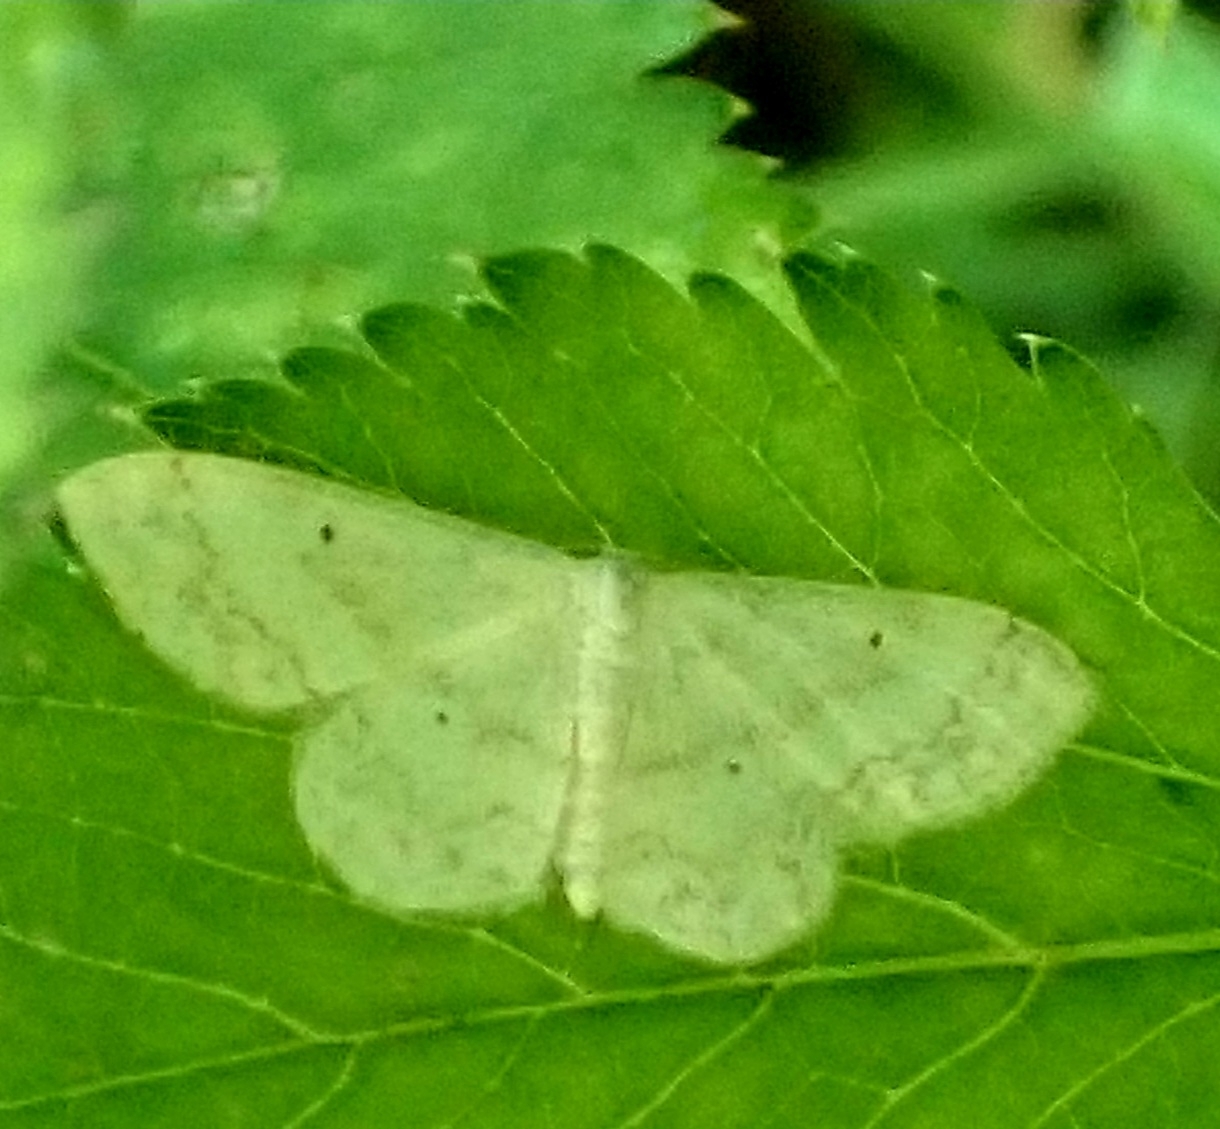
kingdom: Animalia
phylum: Arthropoda
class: Insecta
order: Lepidoptera
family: Geometridae
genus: Idaea
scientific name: Idaea biselata
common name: Small fan-footed wave
